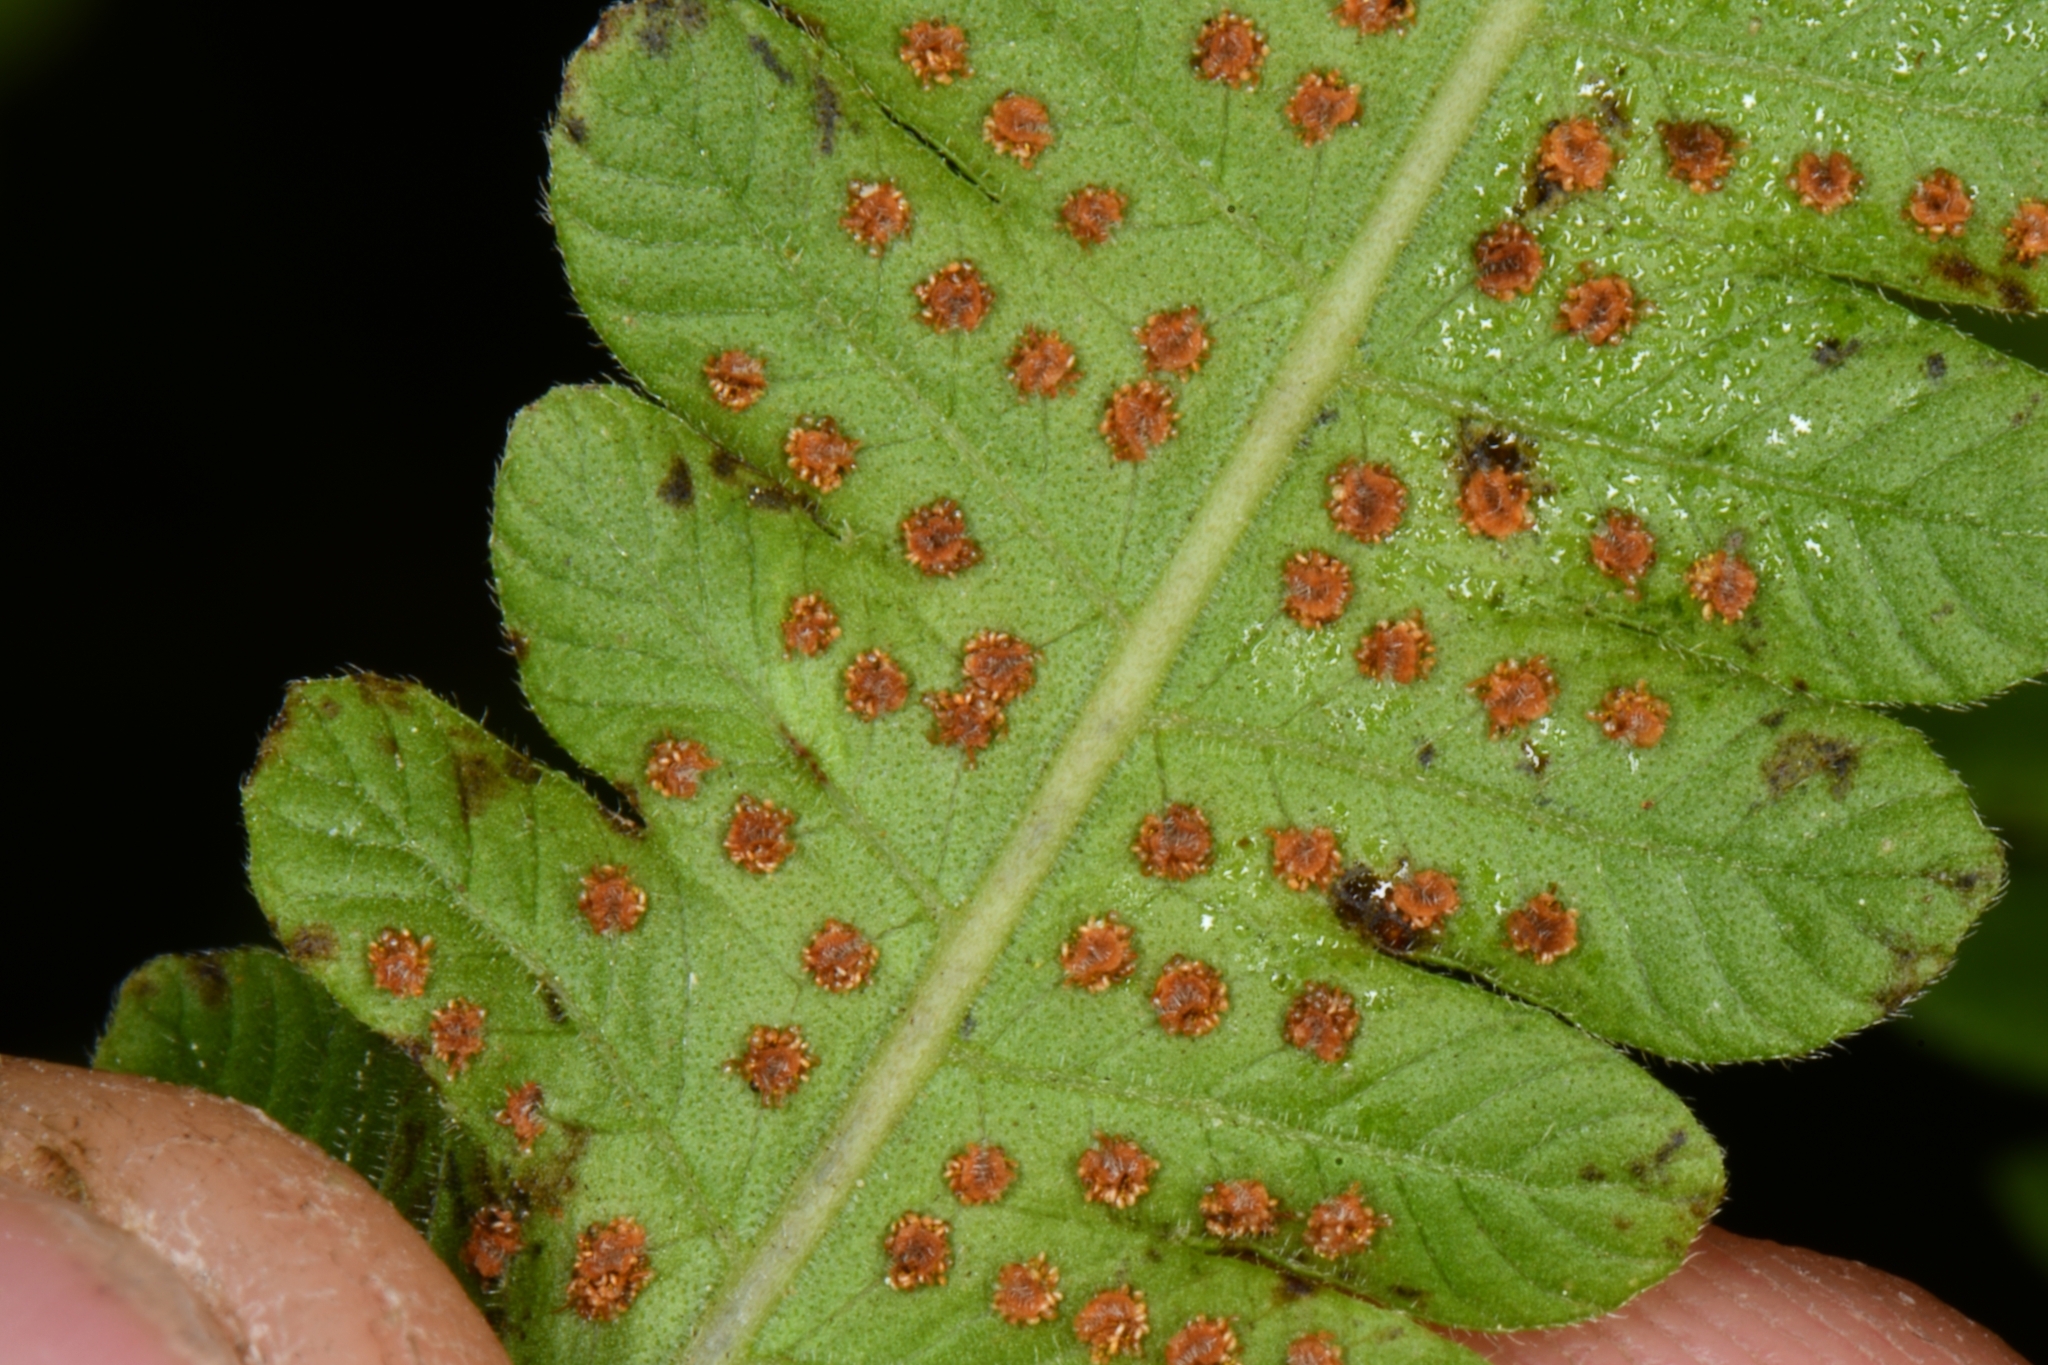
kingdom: Plantae
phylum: Tracheophyta
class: Polypodiopsida
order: Polypodiales
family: Thelypteridaceae
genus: Christella
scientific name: Christella dentata
